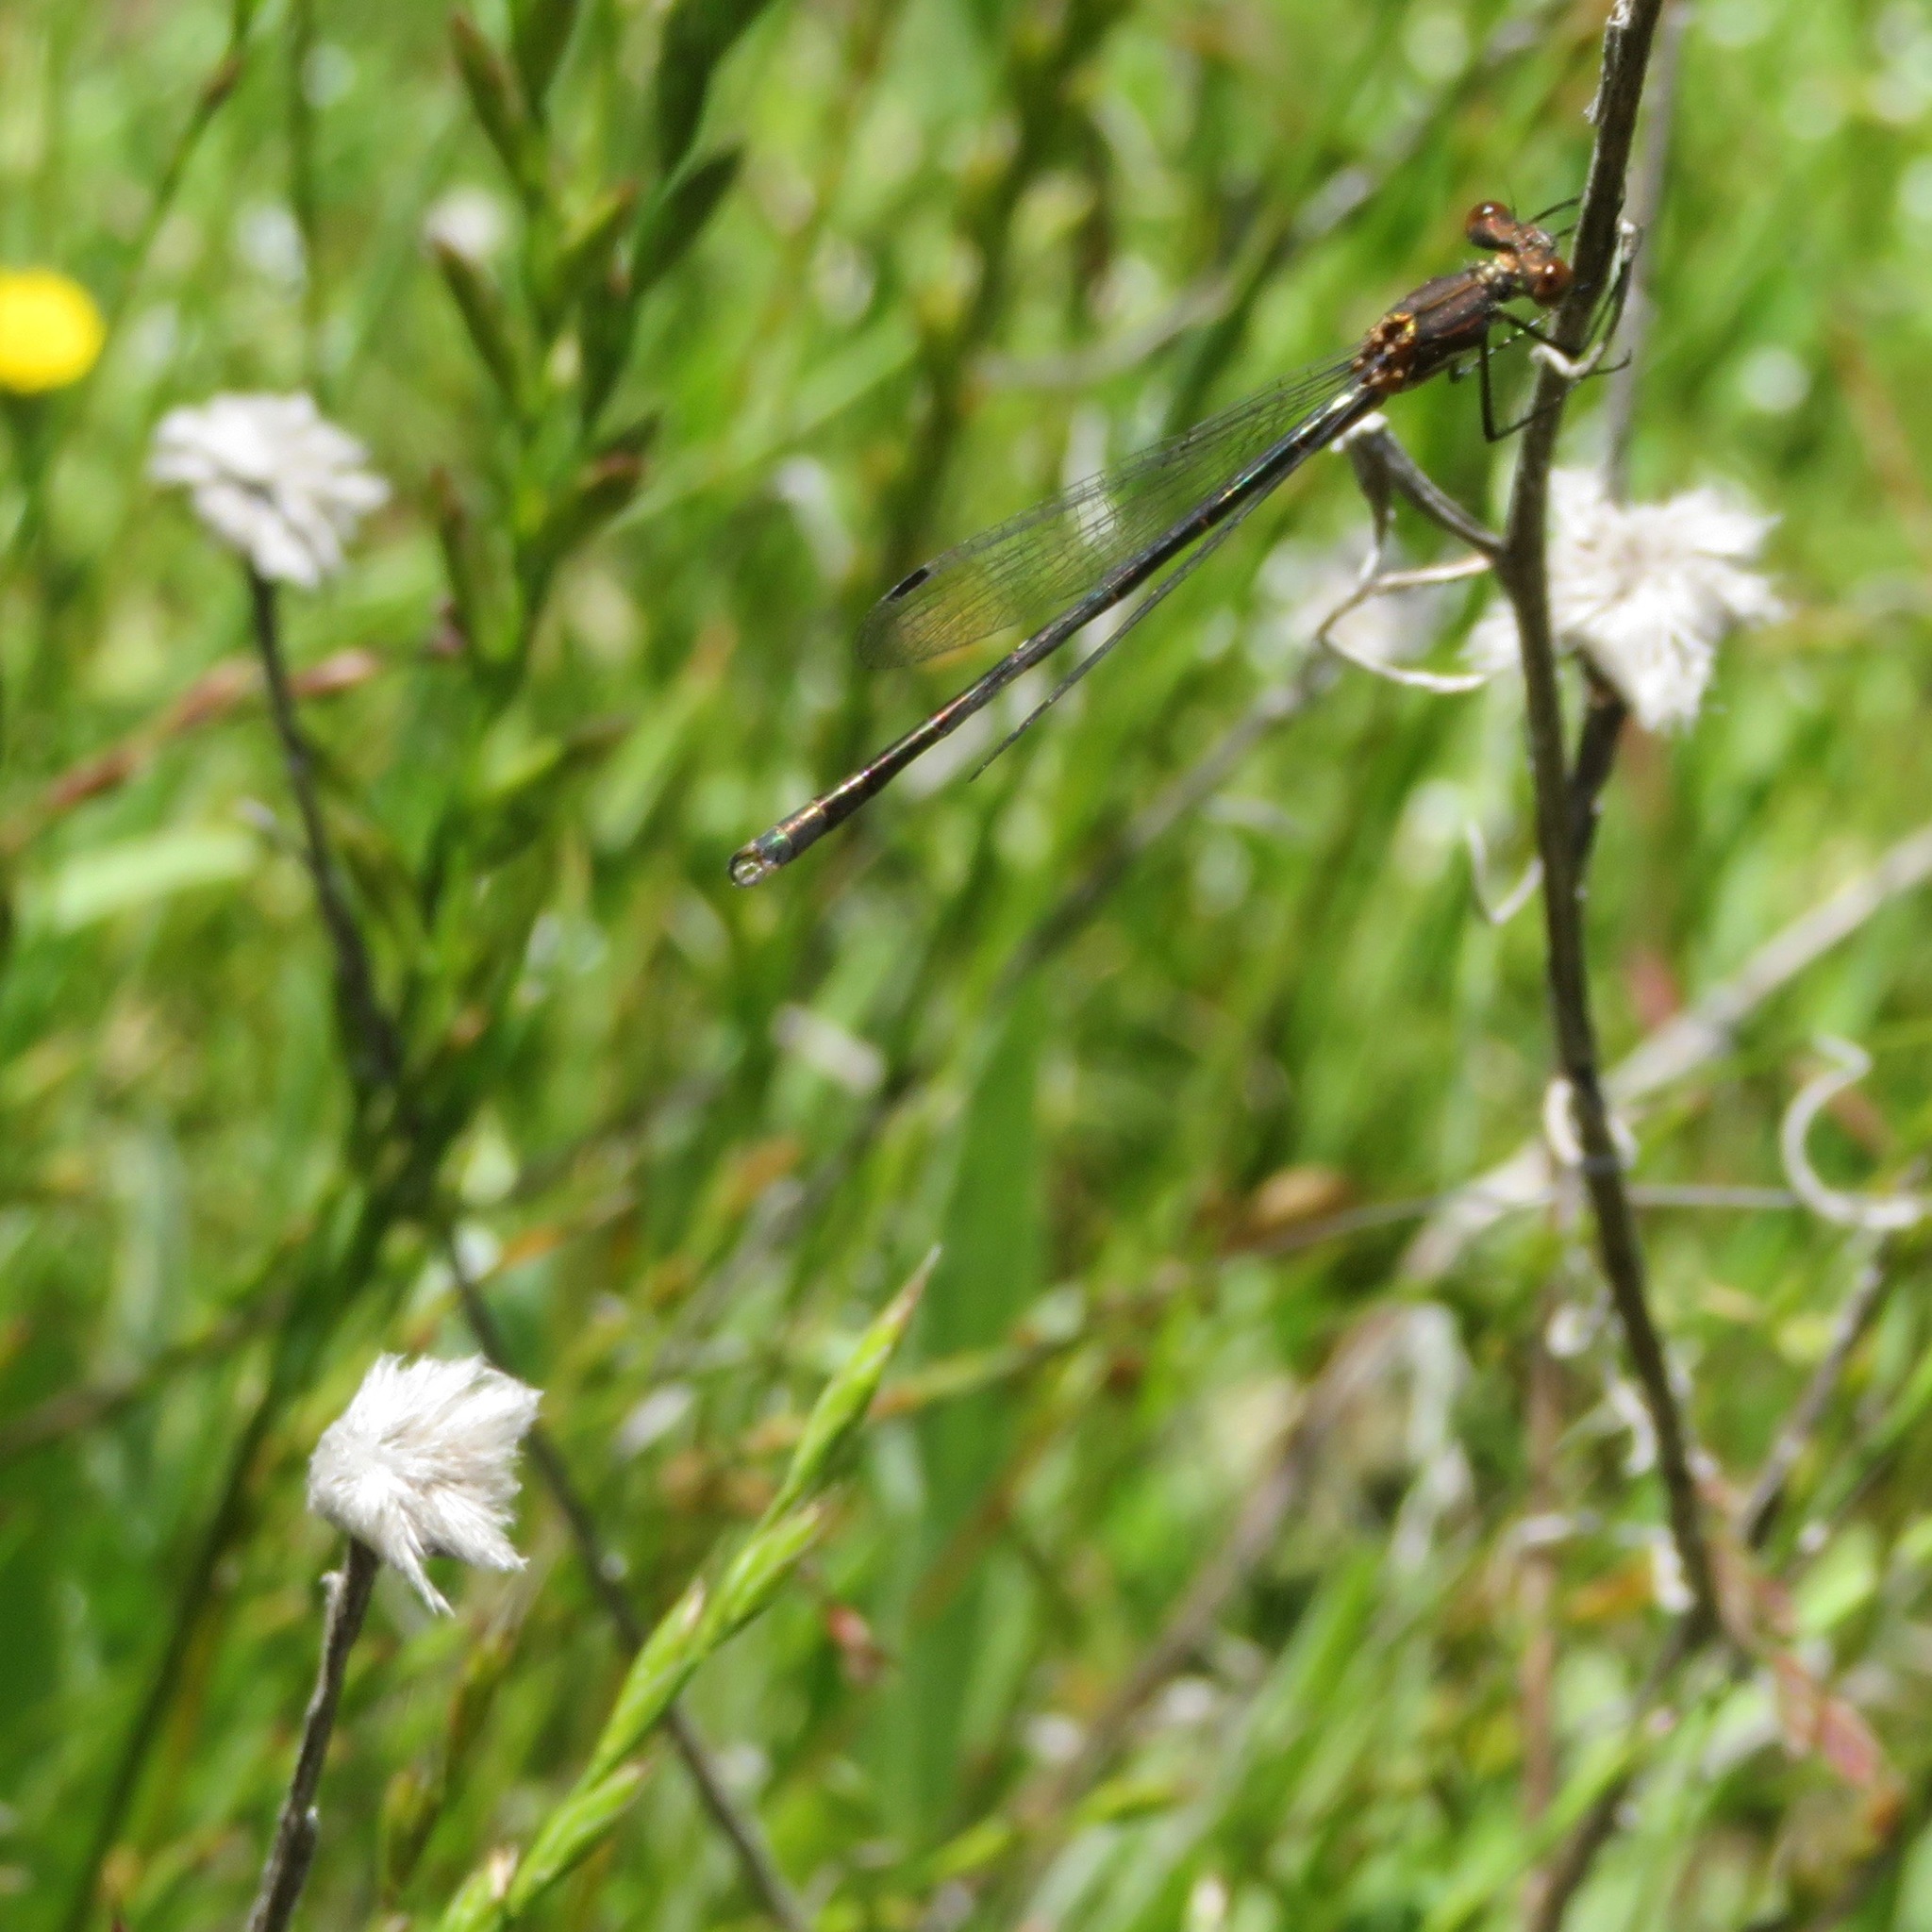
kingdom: Animalia
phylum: Arthropoda
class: Insecta
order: Odonata
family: Lestidae
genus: Lestes
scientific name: Lestes disjunctus
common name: Northern spreadwing
